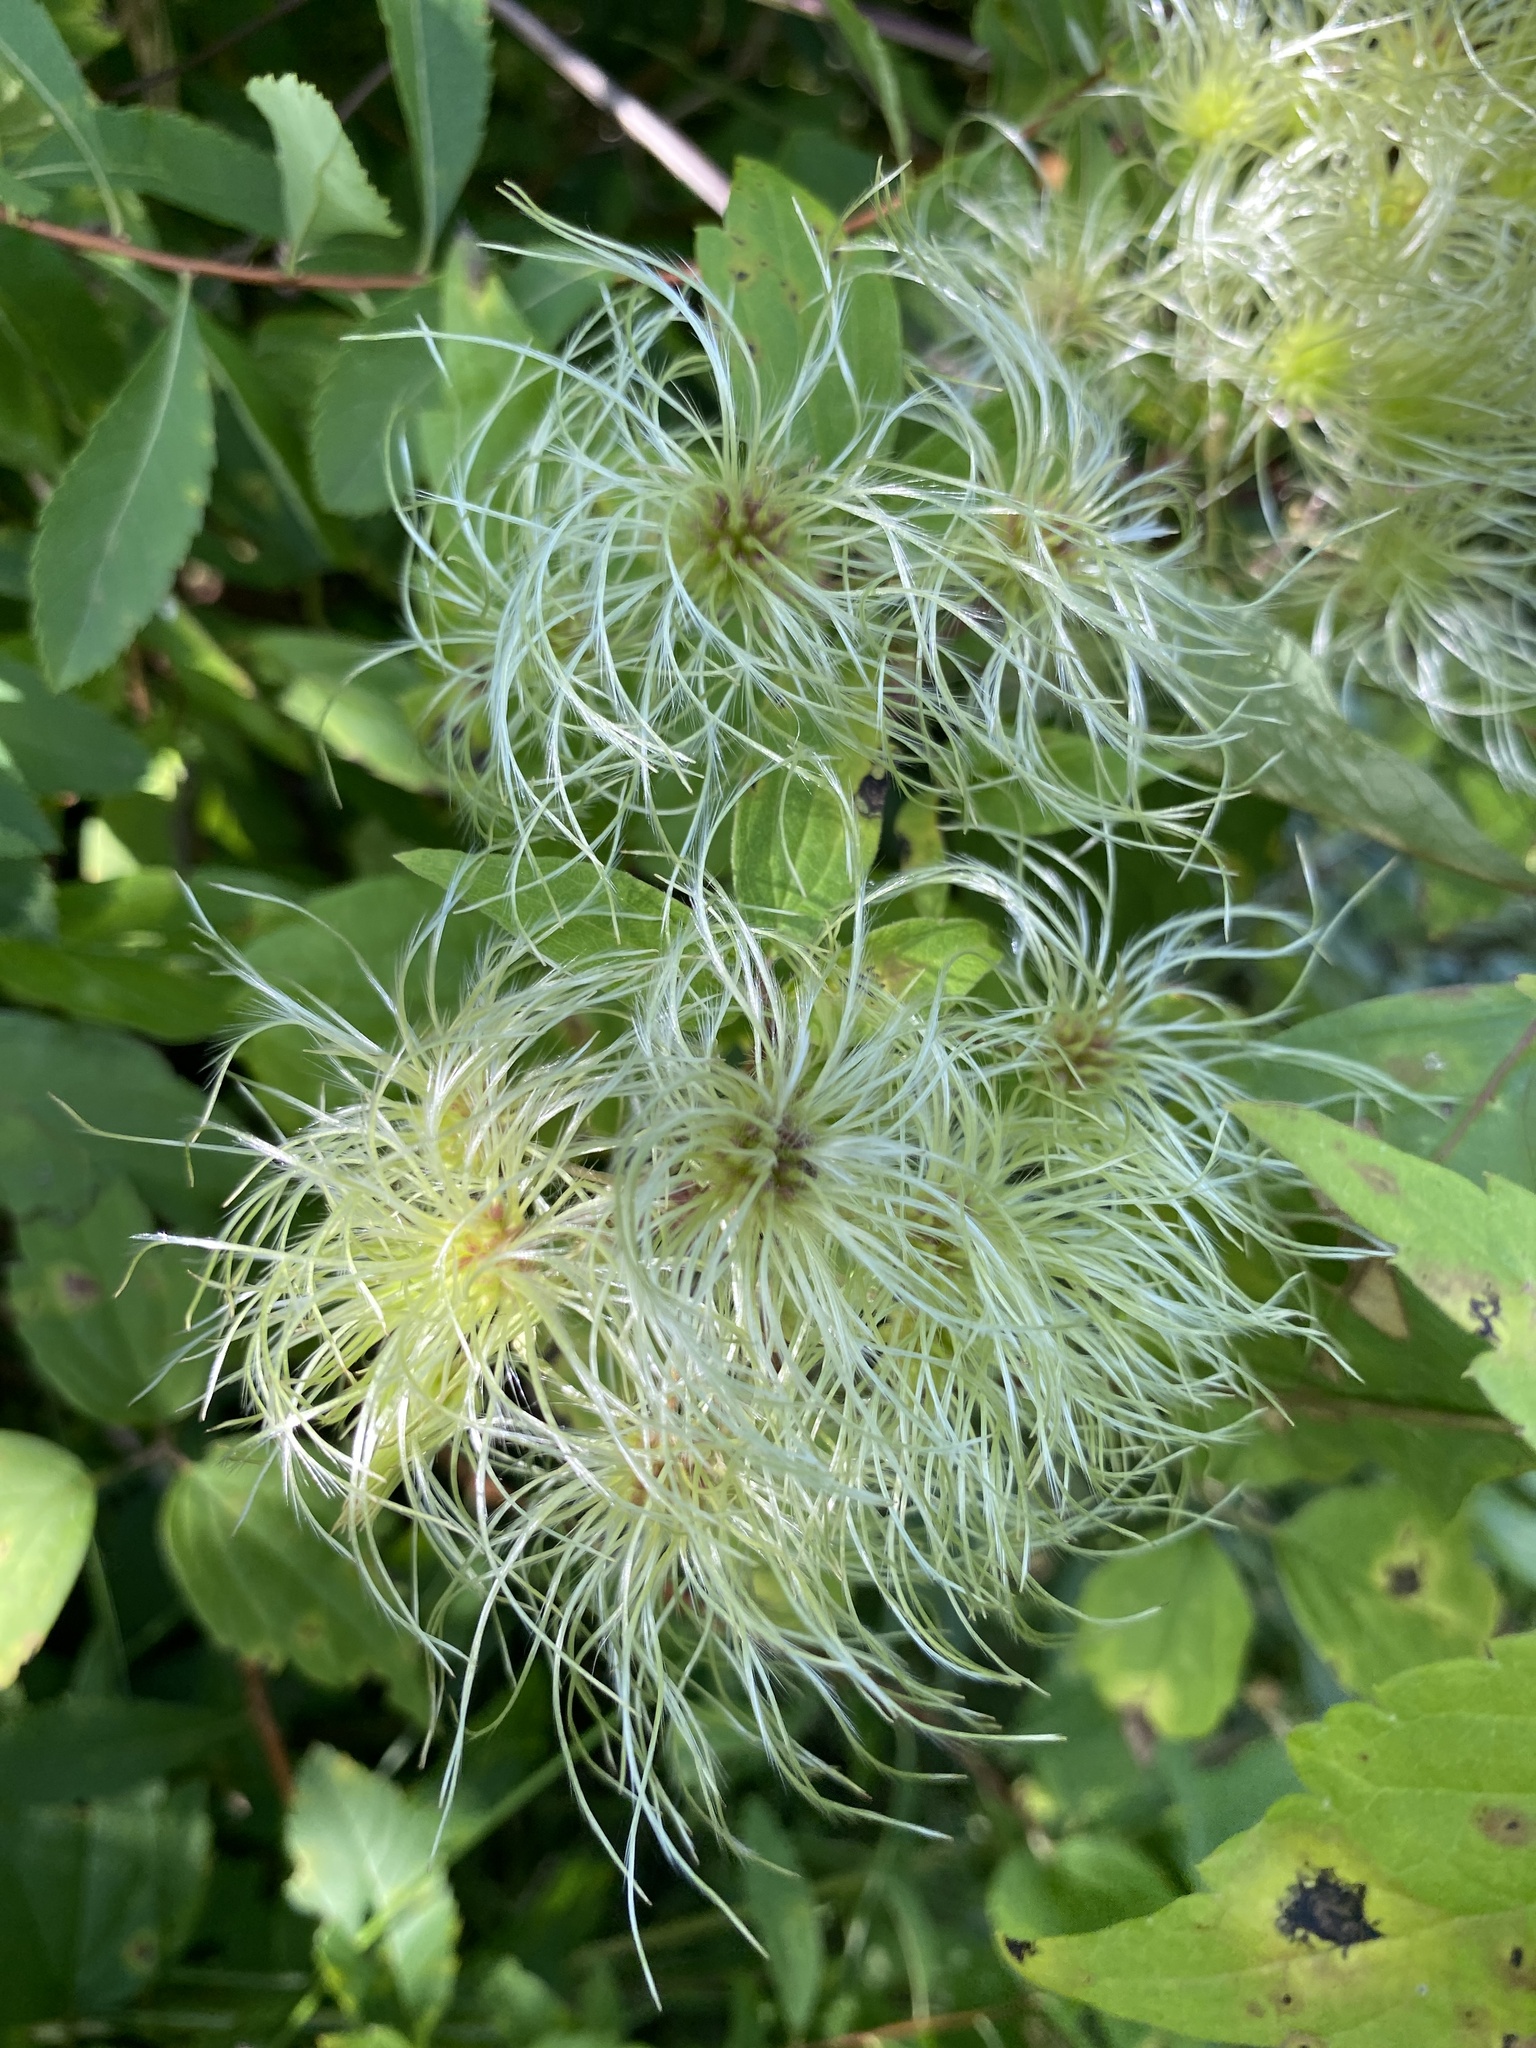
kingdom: Plantae
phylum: Tracheophyta
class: Magnoliopsida
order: Ranunculales
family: Ranunculaceae
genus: Clematis
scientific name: Clematis virginiana
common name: Virgin's-bower
